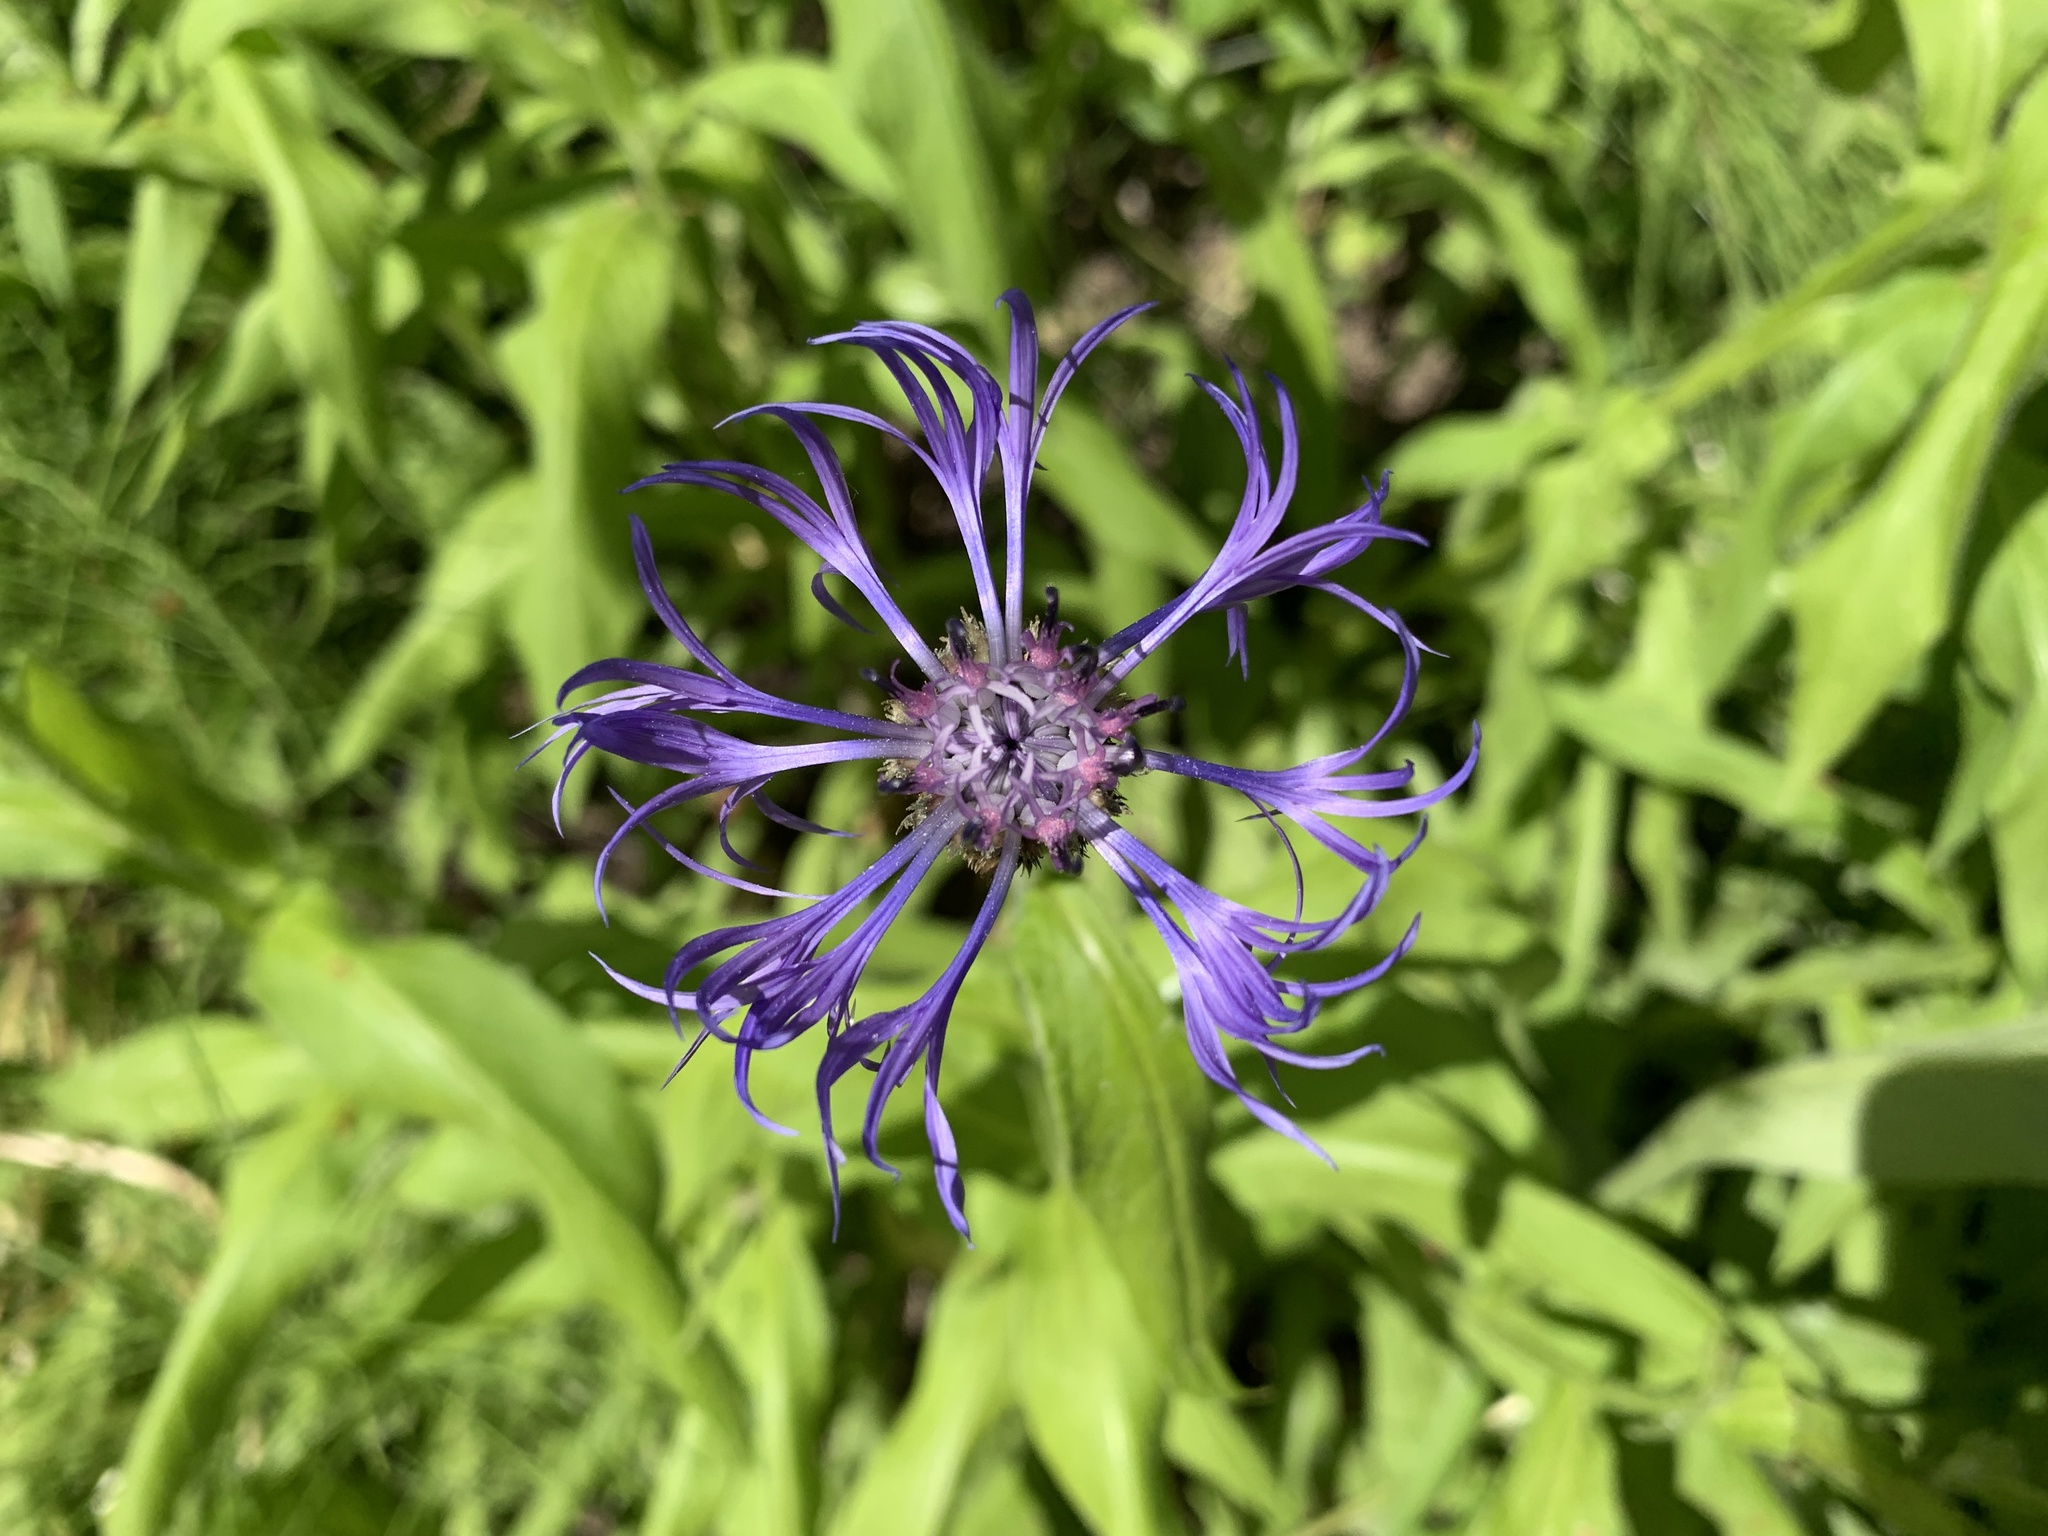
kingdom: Plantae
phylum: Tracheophyta
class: Magnoliopsida
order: Asterales
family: Asteraceae
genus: Centaurea
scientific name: Centaurea montana
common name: Perennial cornflower
